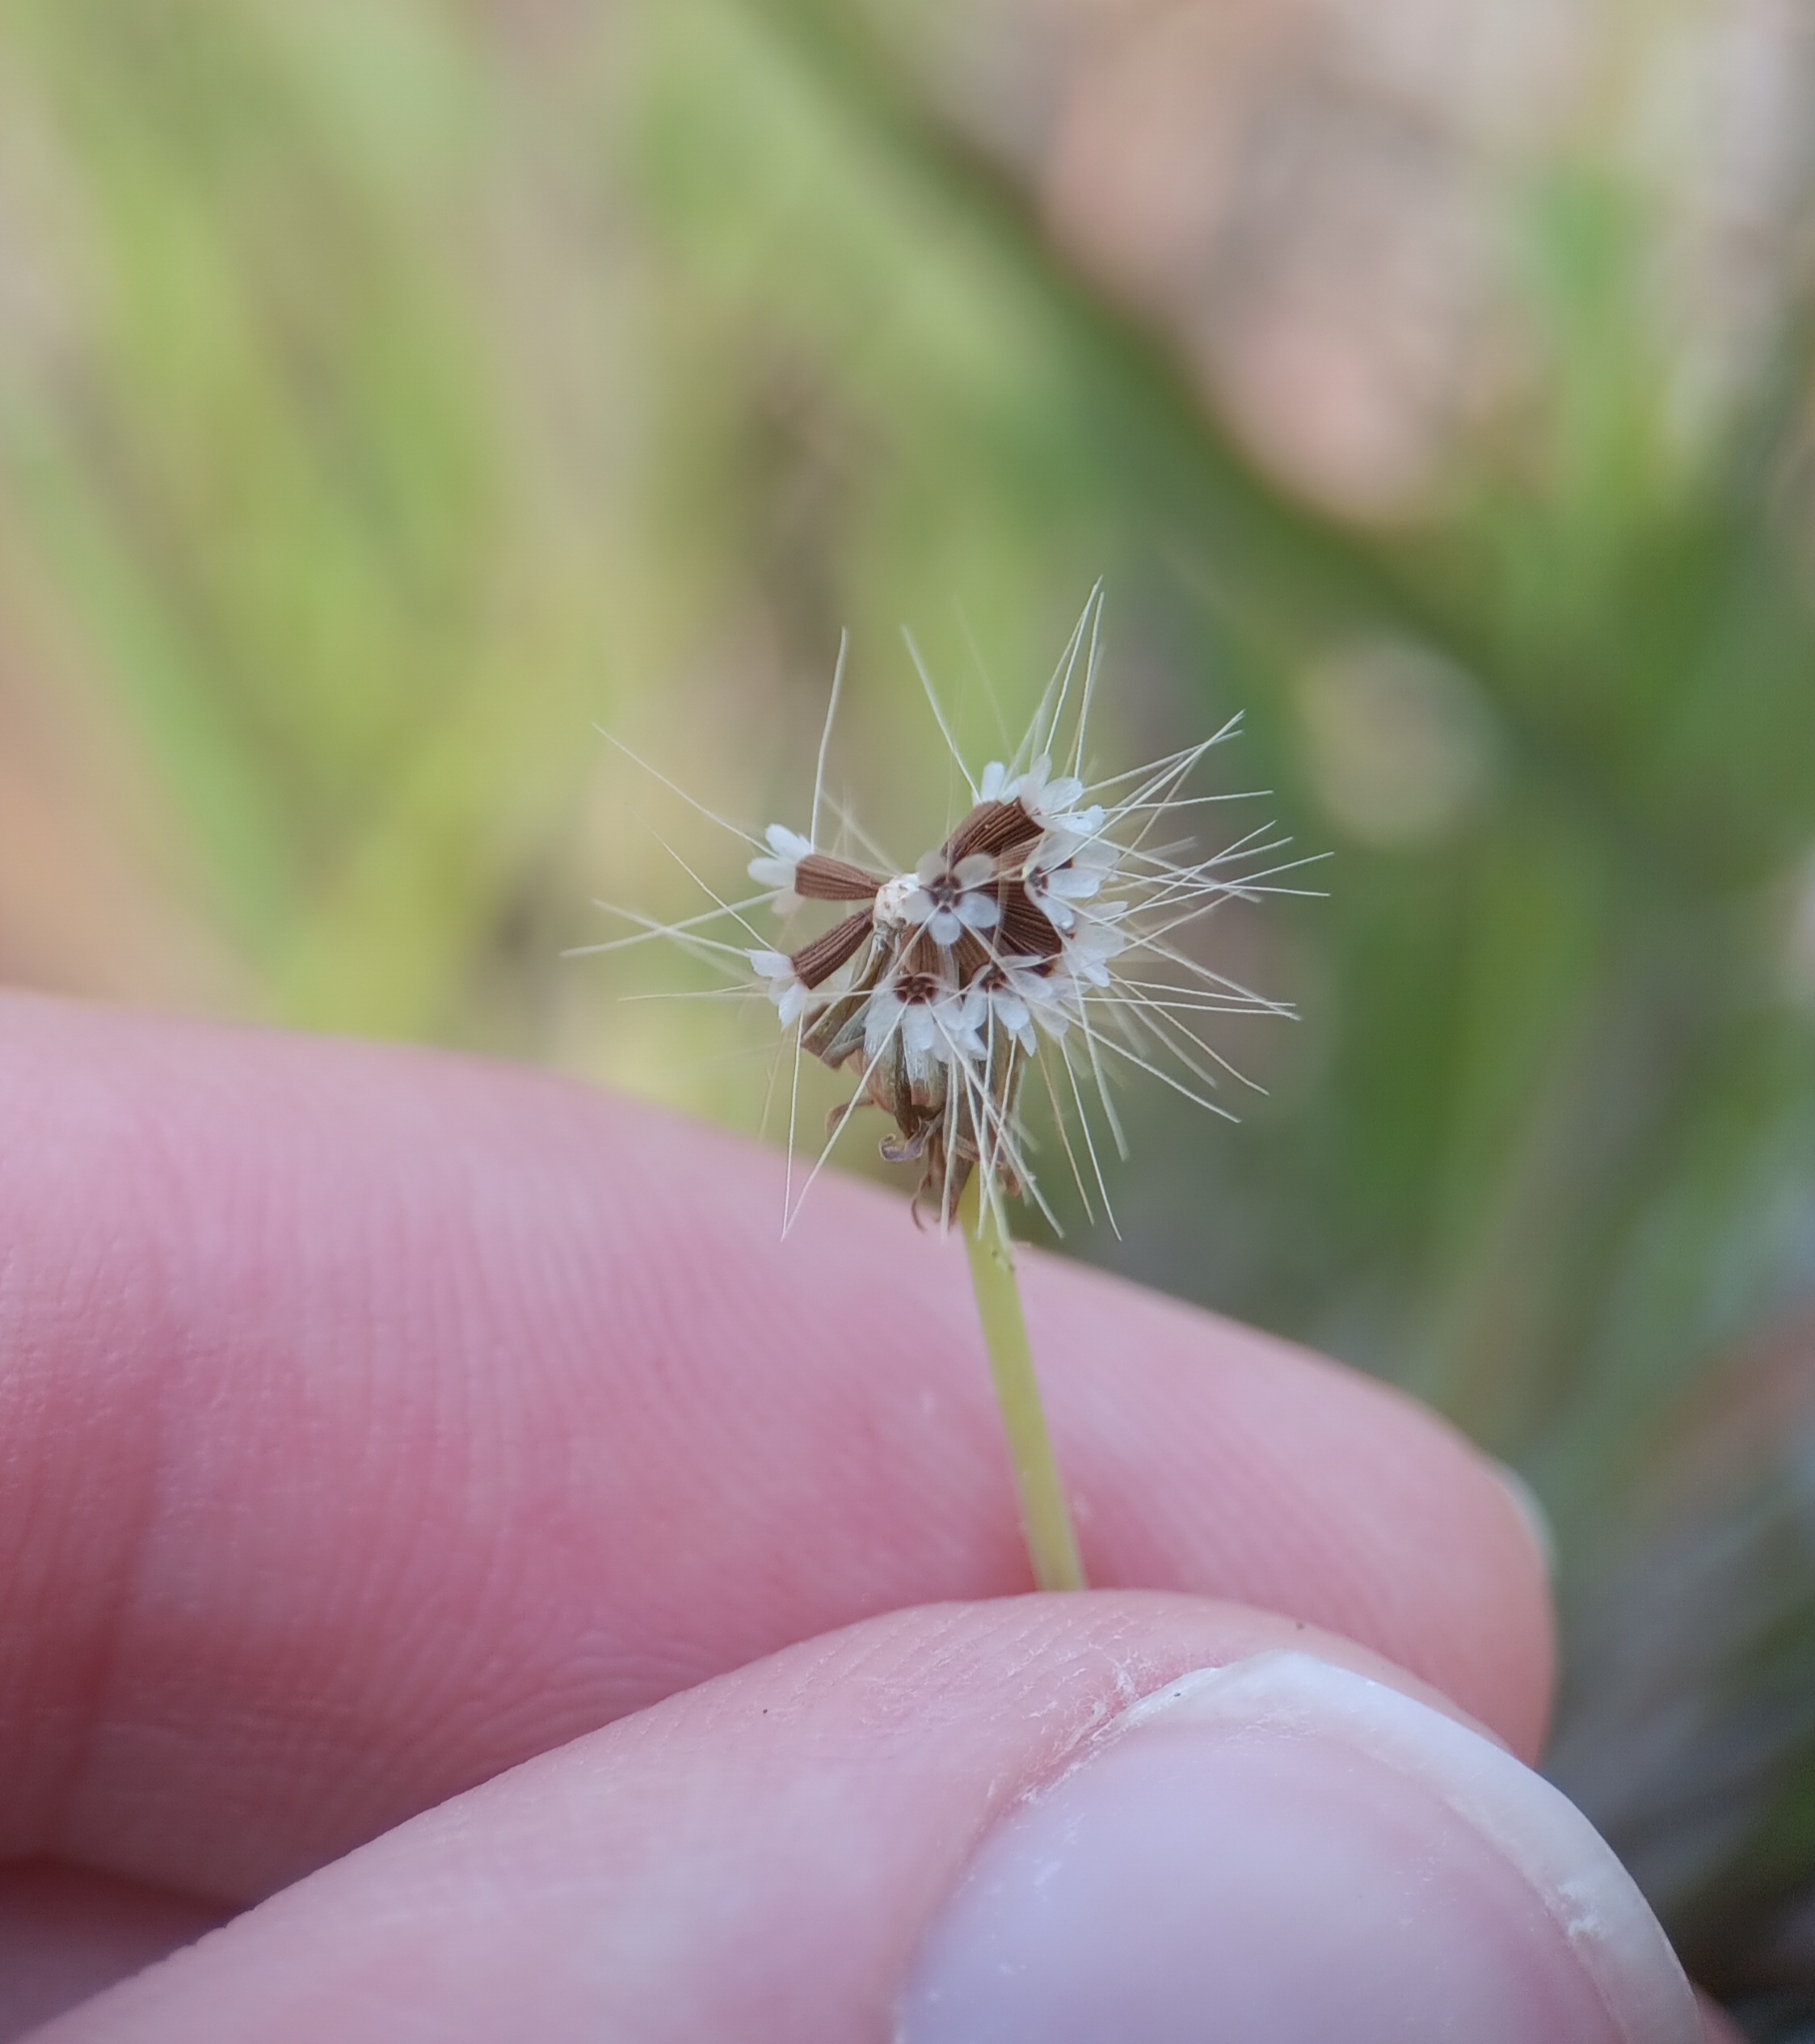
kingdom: Plantae
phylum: Tracheophyta
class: Magnoliopsida
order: Asterales
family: Asteraceae
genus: Krigia
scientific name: Krigia virginica
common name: Virginia dwarf-dandelion
